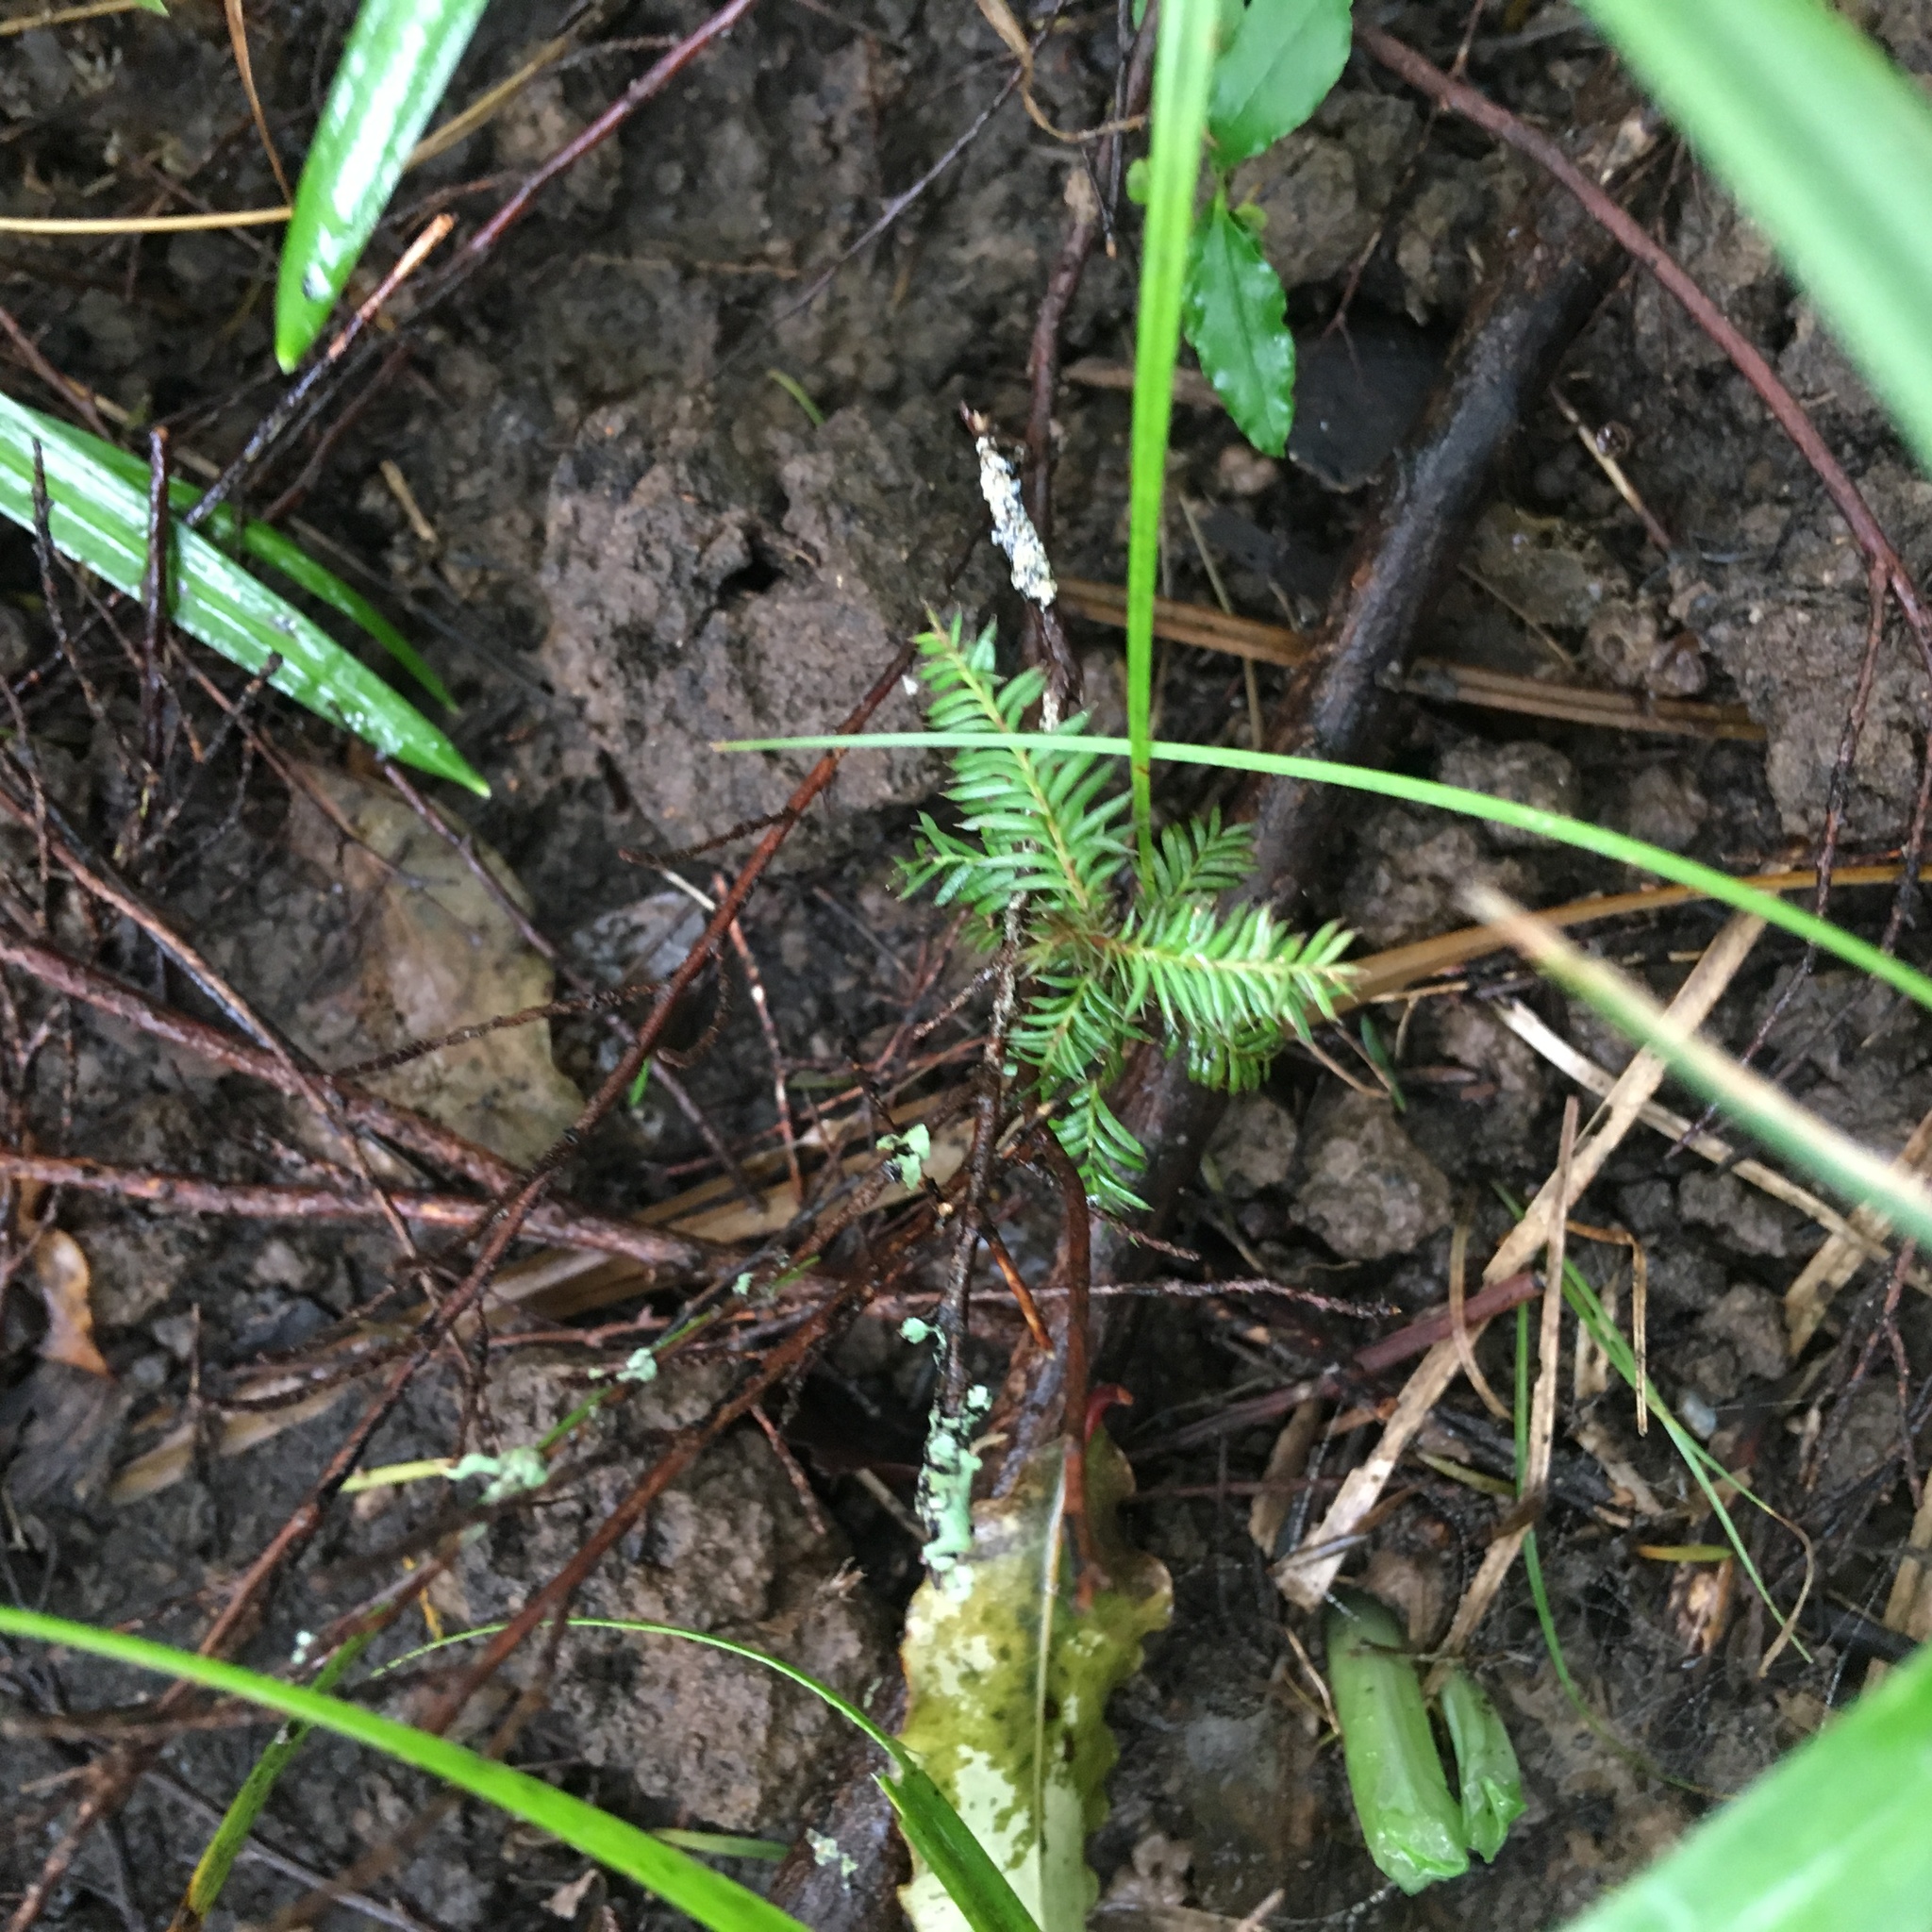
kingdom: Plantae
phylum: Tracheophyta
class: Pinopsida
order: Pinales
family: Podocarpaceae
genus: Dacrycarpus
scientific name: Dacrycarpus dacrydioides
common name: White pine
